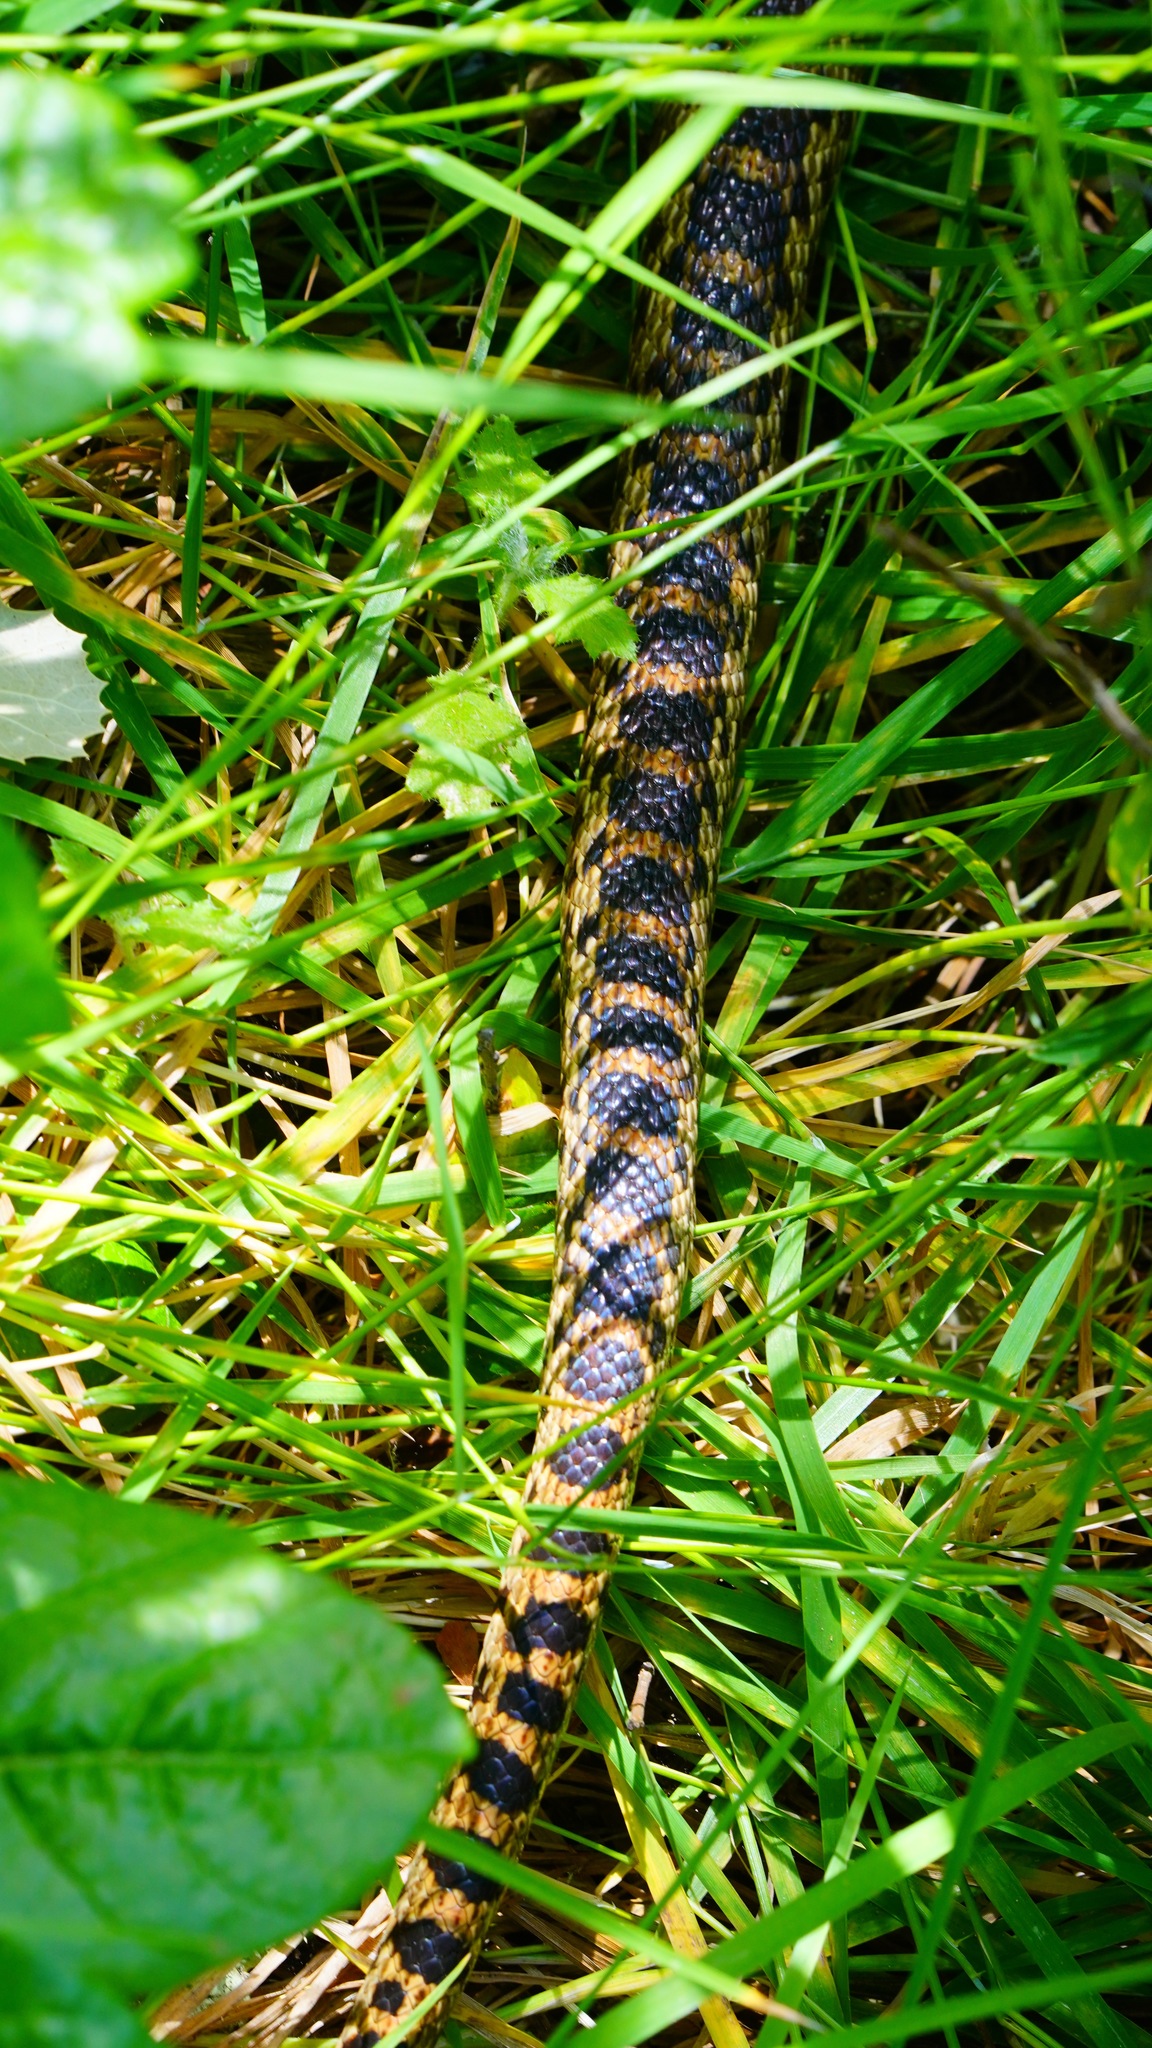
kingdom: Animalia
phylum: Chordata
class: Squamata
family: Colubridae
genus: Pituophis
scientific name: Pituophis catenifer
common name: Gopher snake
